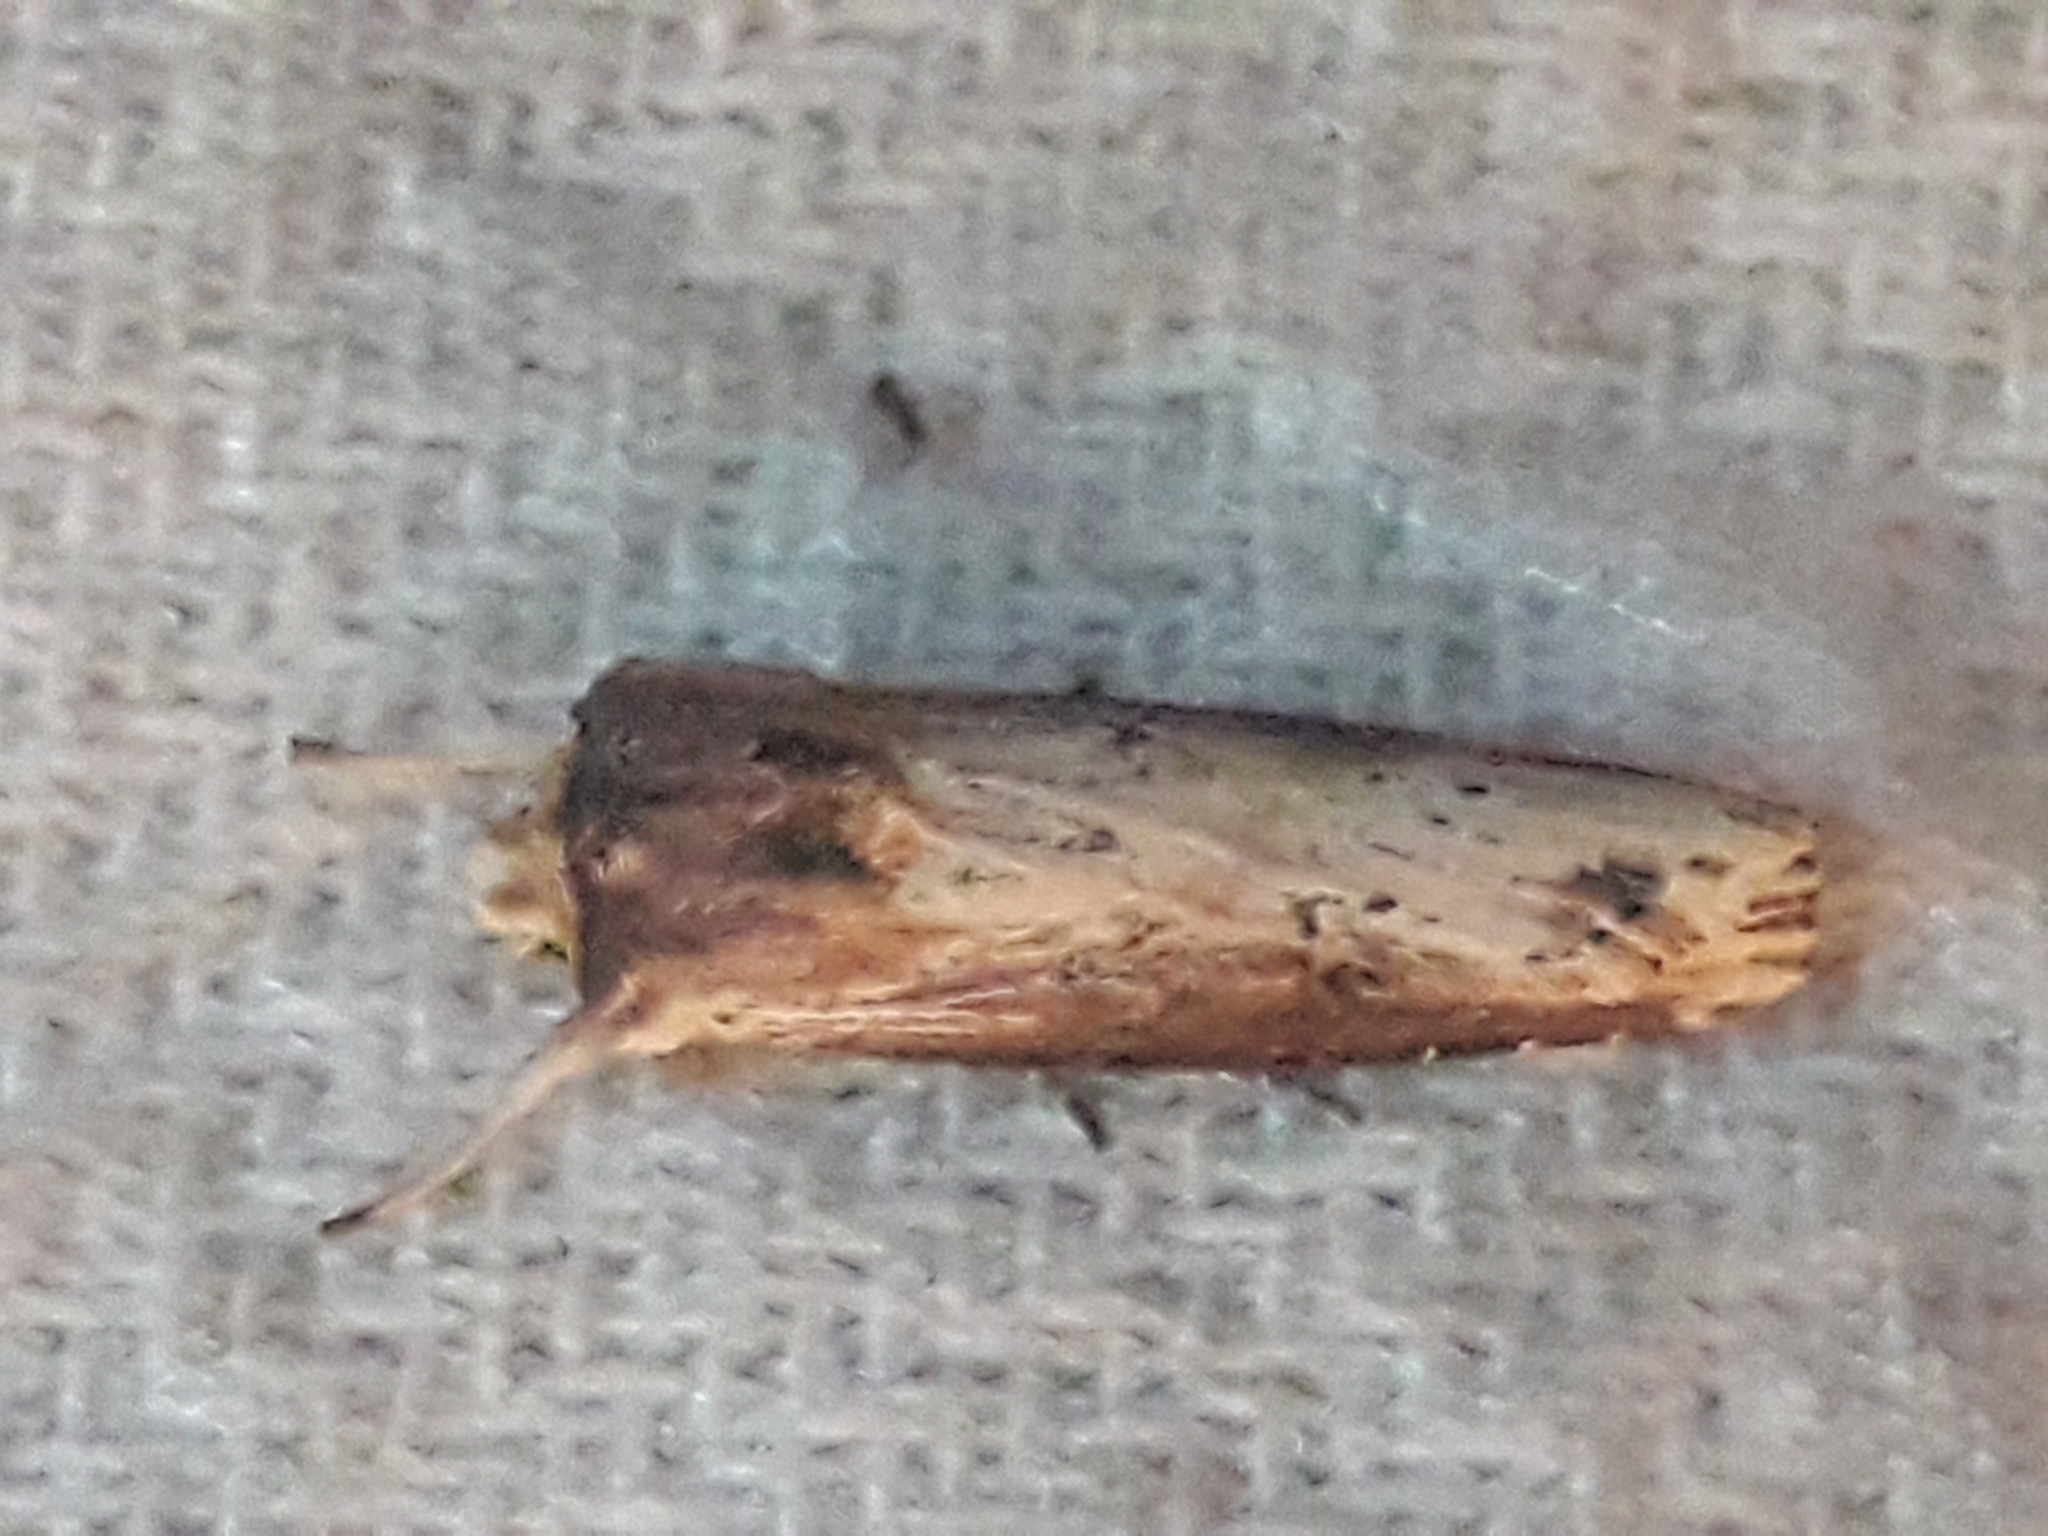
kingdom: Animalia
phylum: Arthropoda
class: Insecta
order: Lepidoptera
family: Noctuidae
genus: Axylia
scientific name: Axylia putris
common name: Flame
